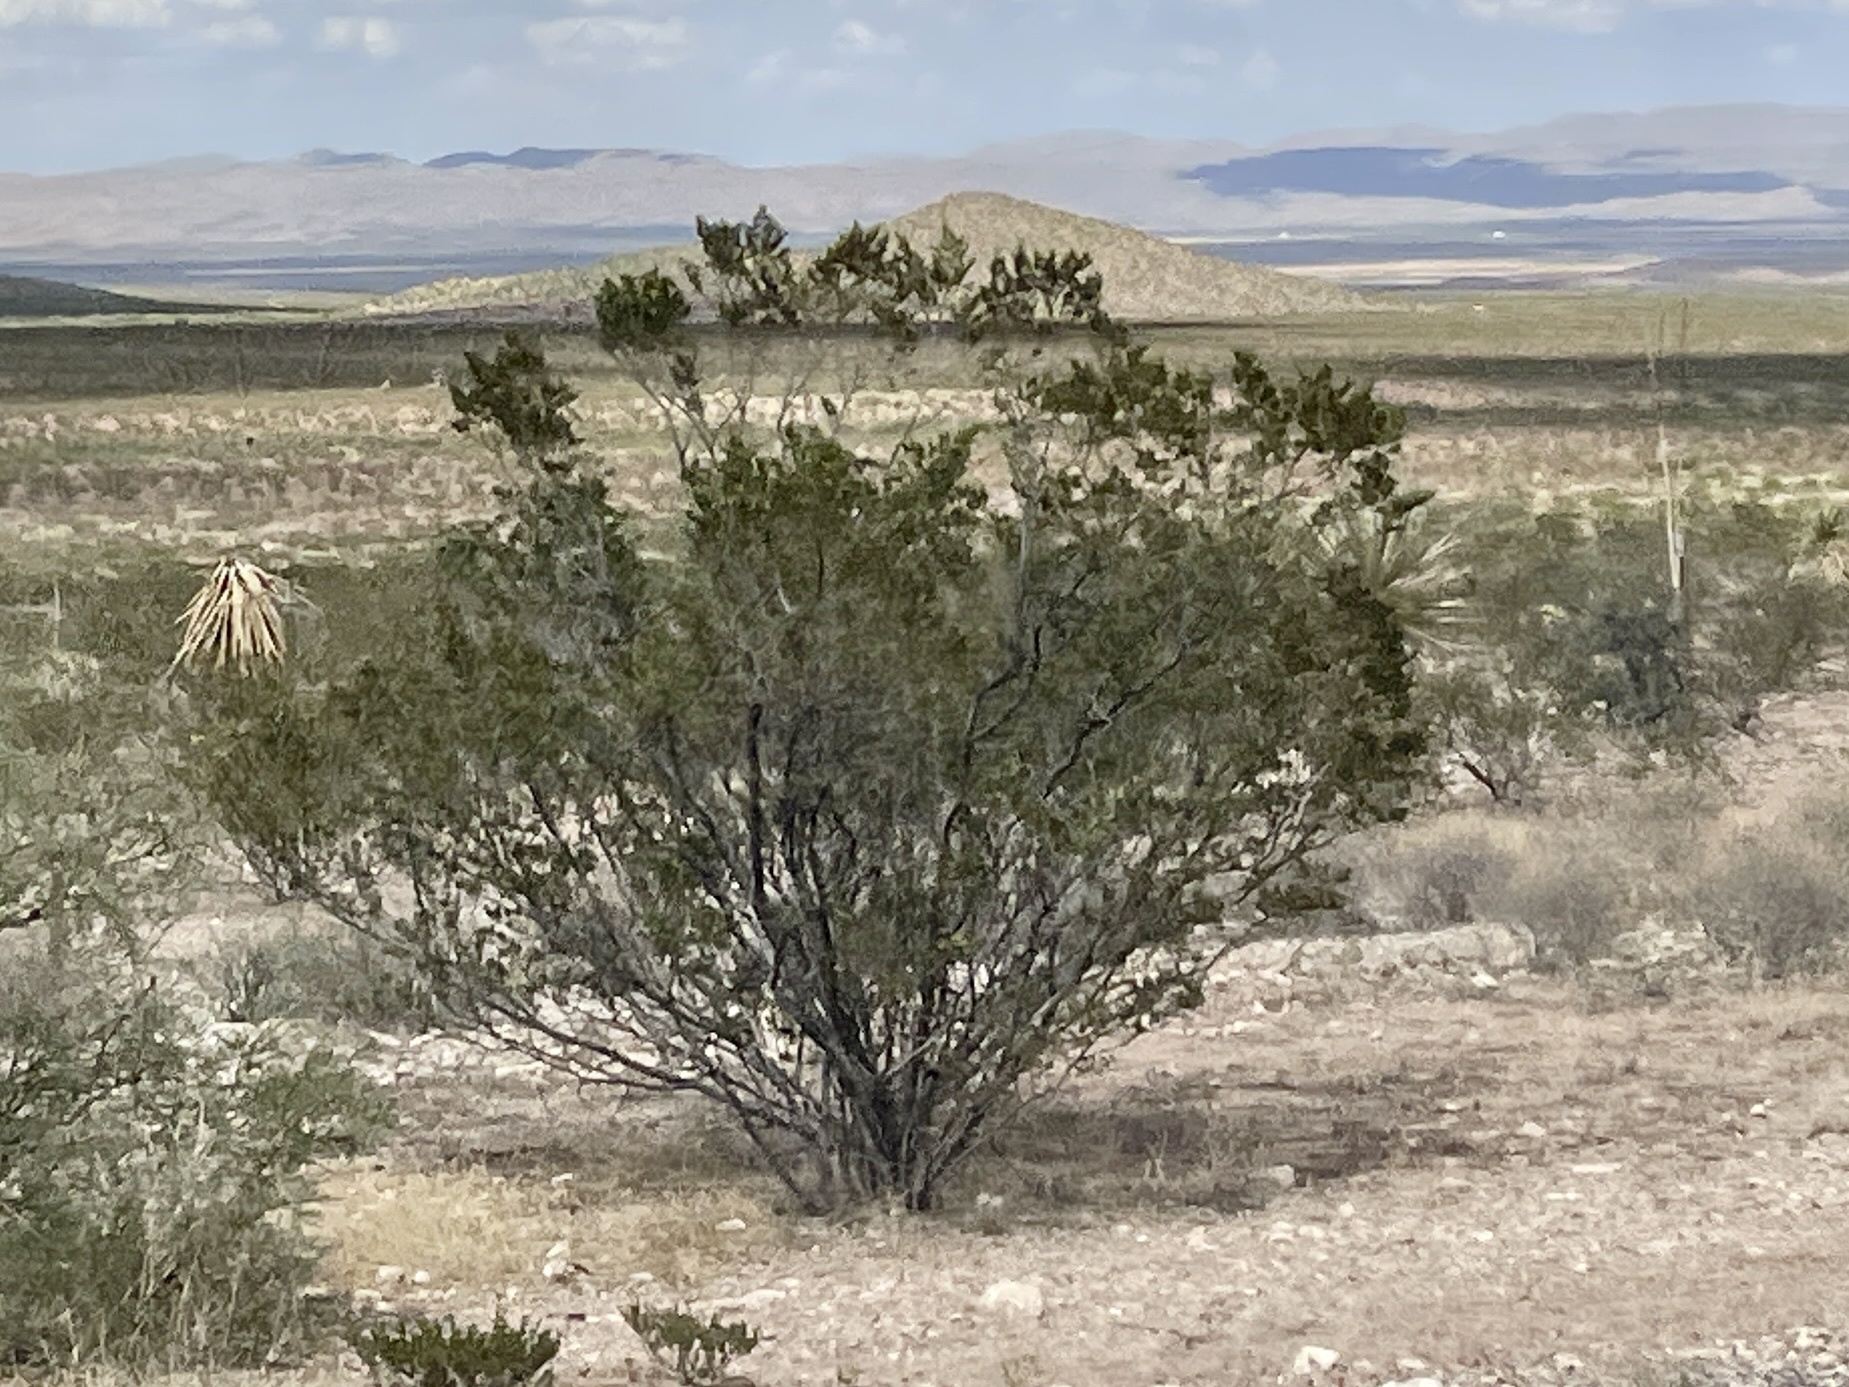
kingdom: Plantae
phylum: Tracheophyta
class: Magnoliopsida
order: Zygophyllales
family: Zygophyllaceae
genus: Larrea
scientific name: Larrea tridentata
